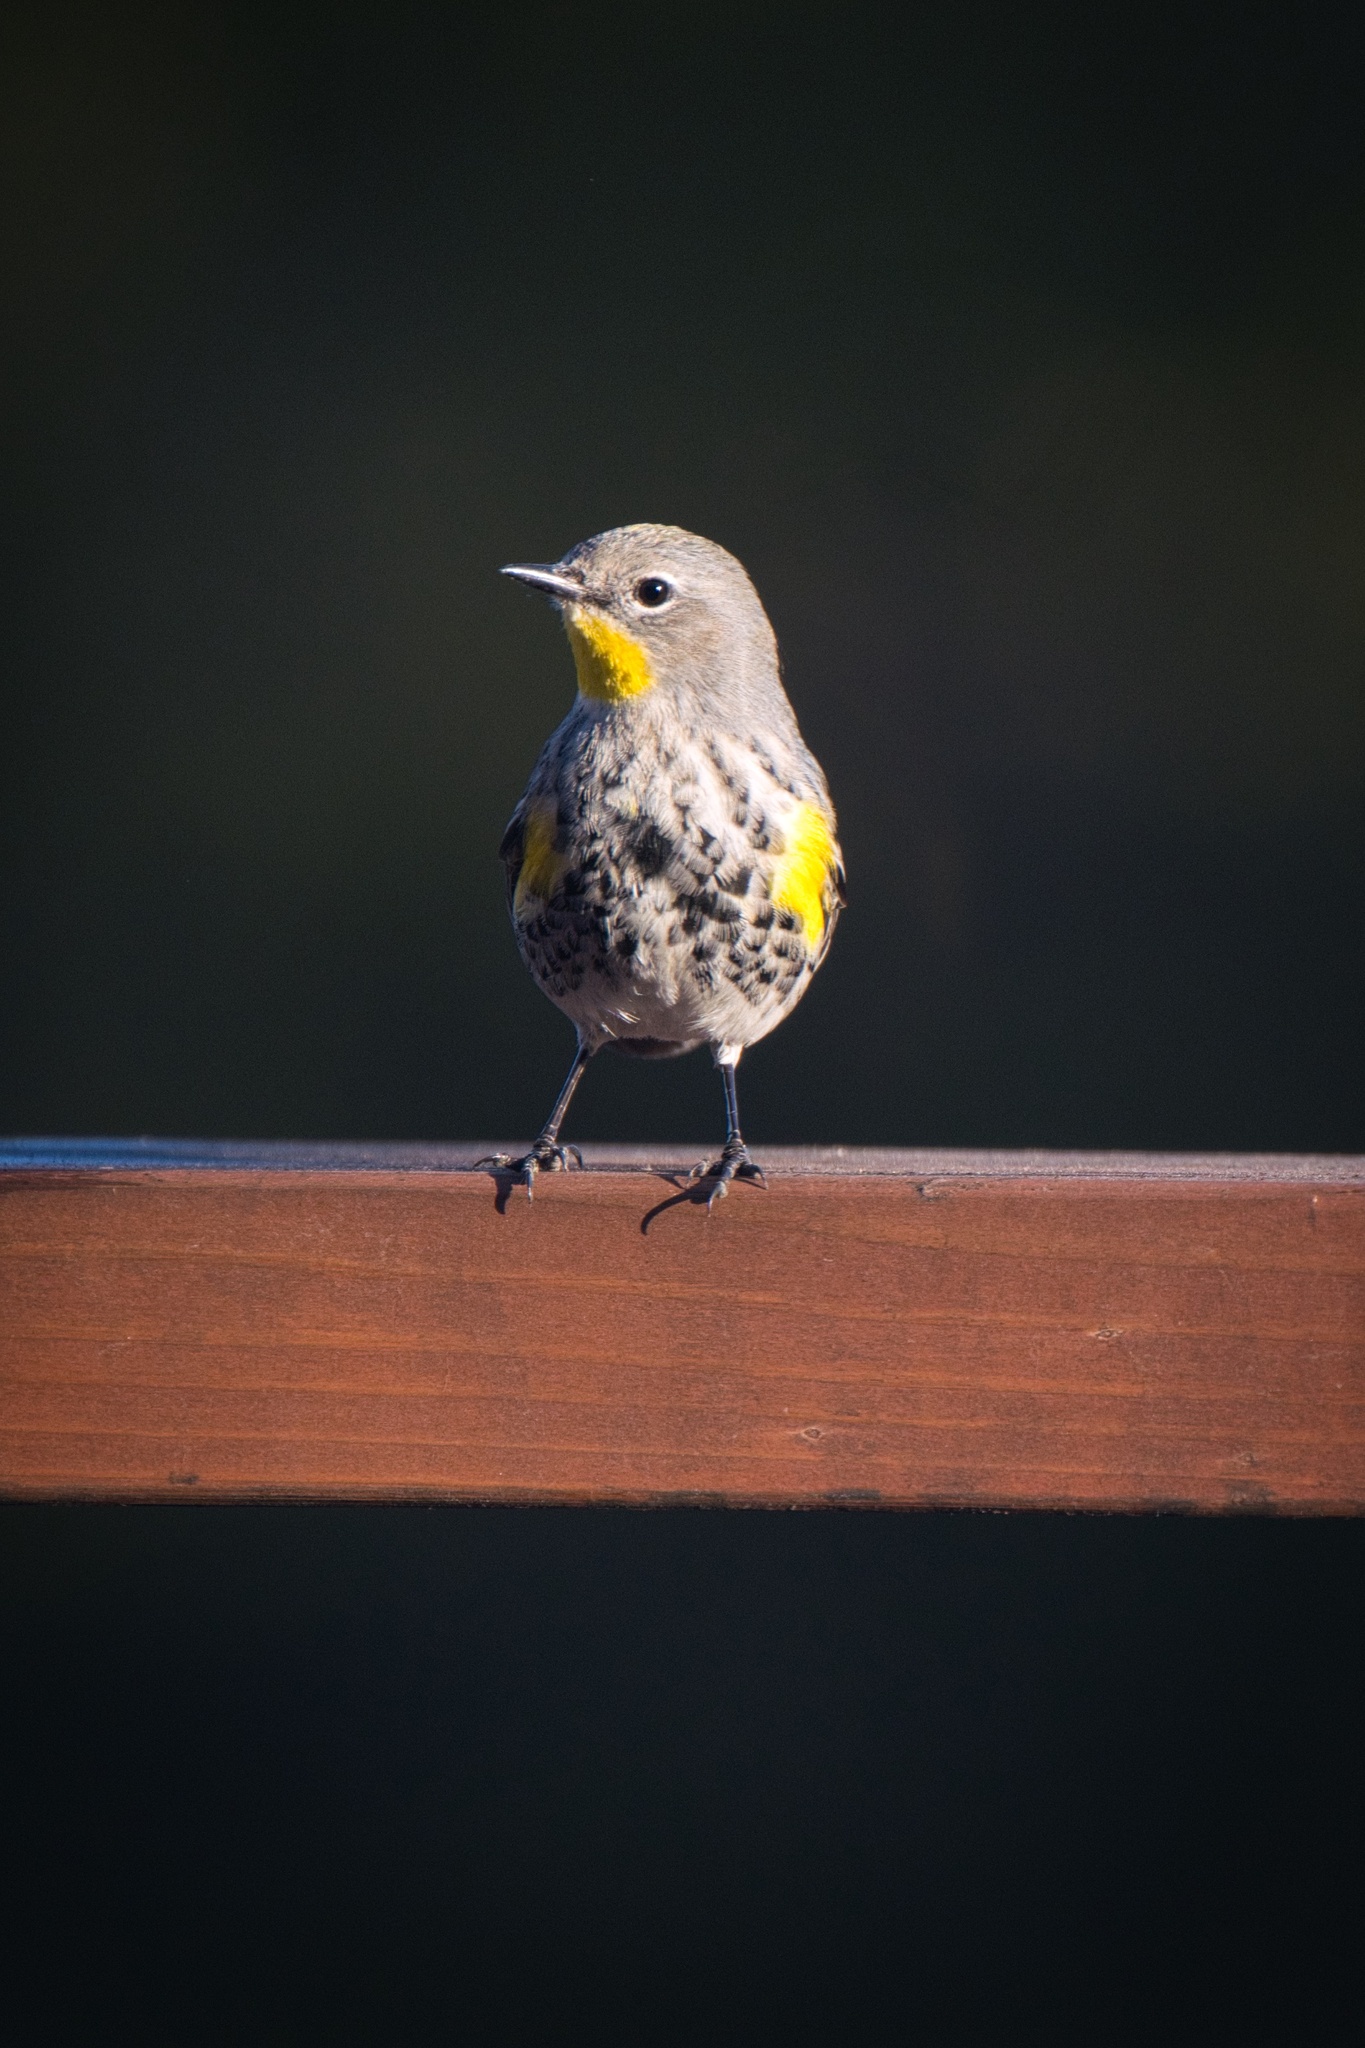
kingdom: Animalia
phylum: Chordata
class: Aves
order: Passeriformes
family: Parulidae
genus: Setophaga
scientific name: Setophaga coronata
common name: Myrtle warbler
